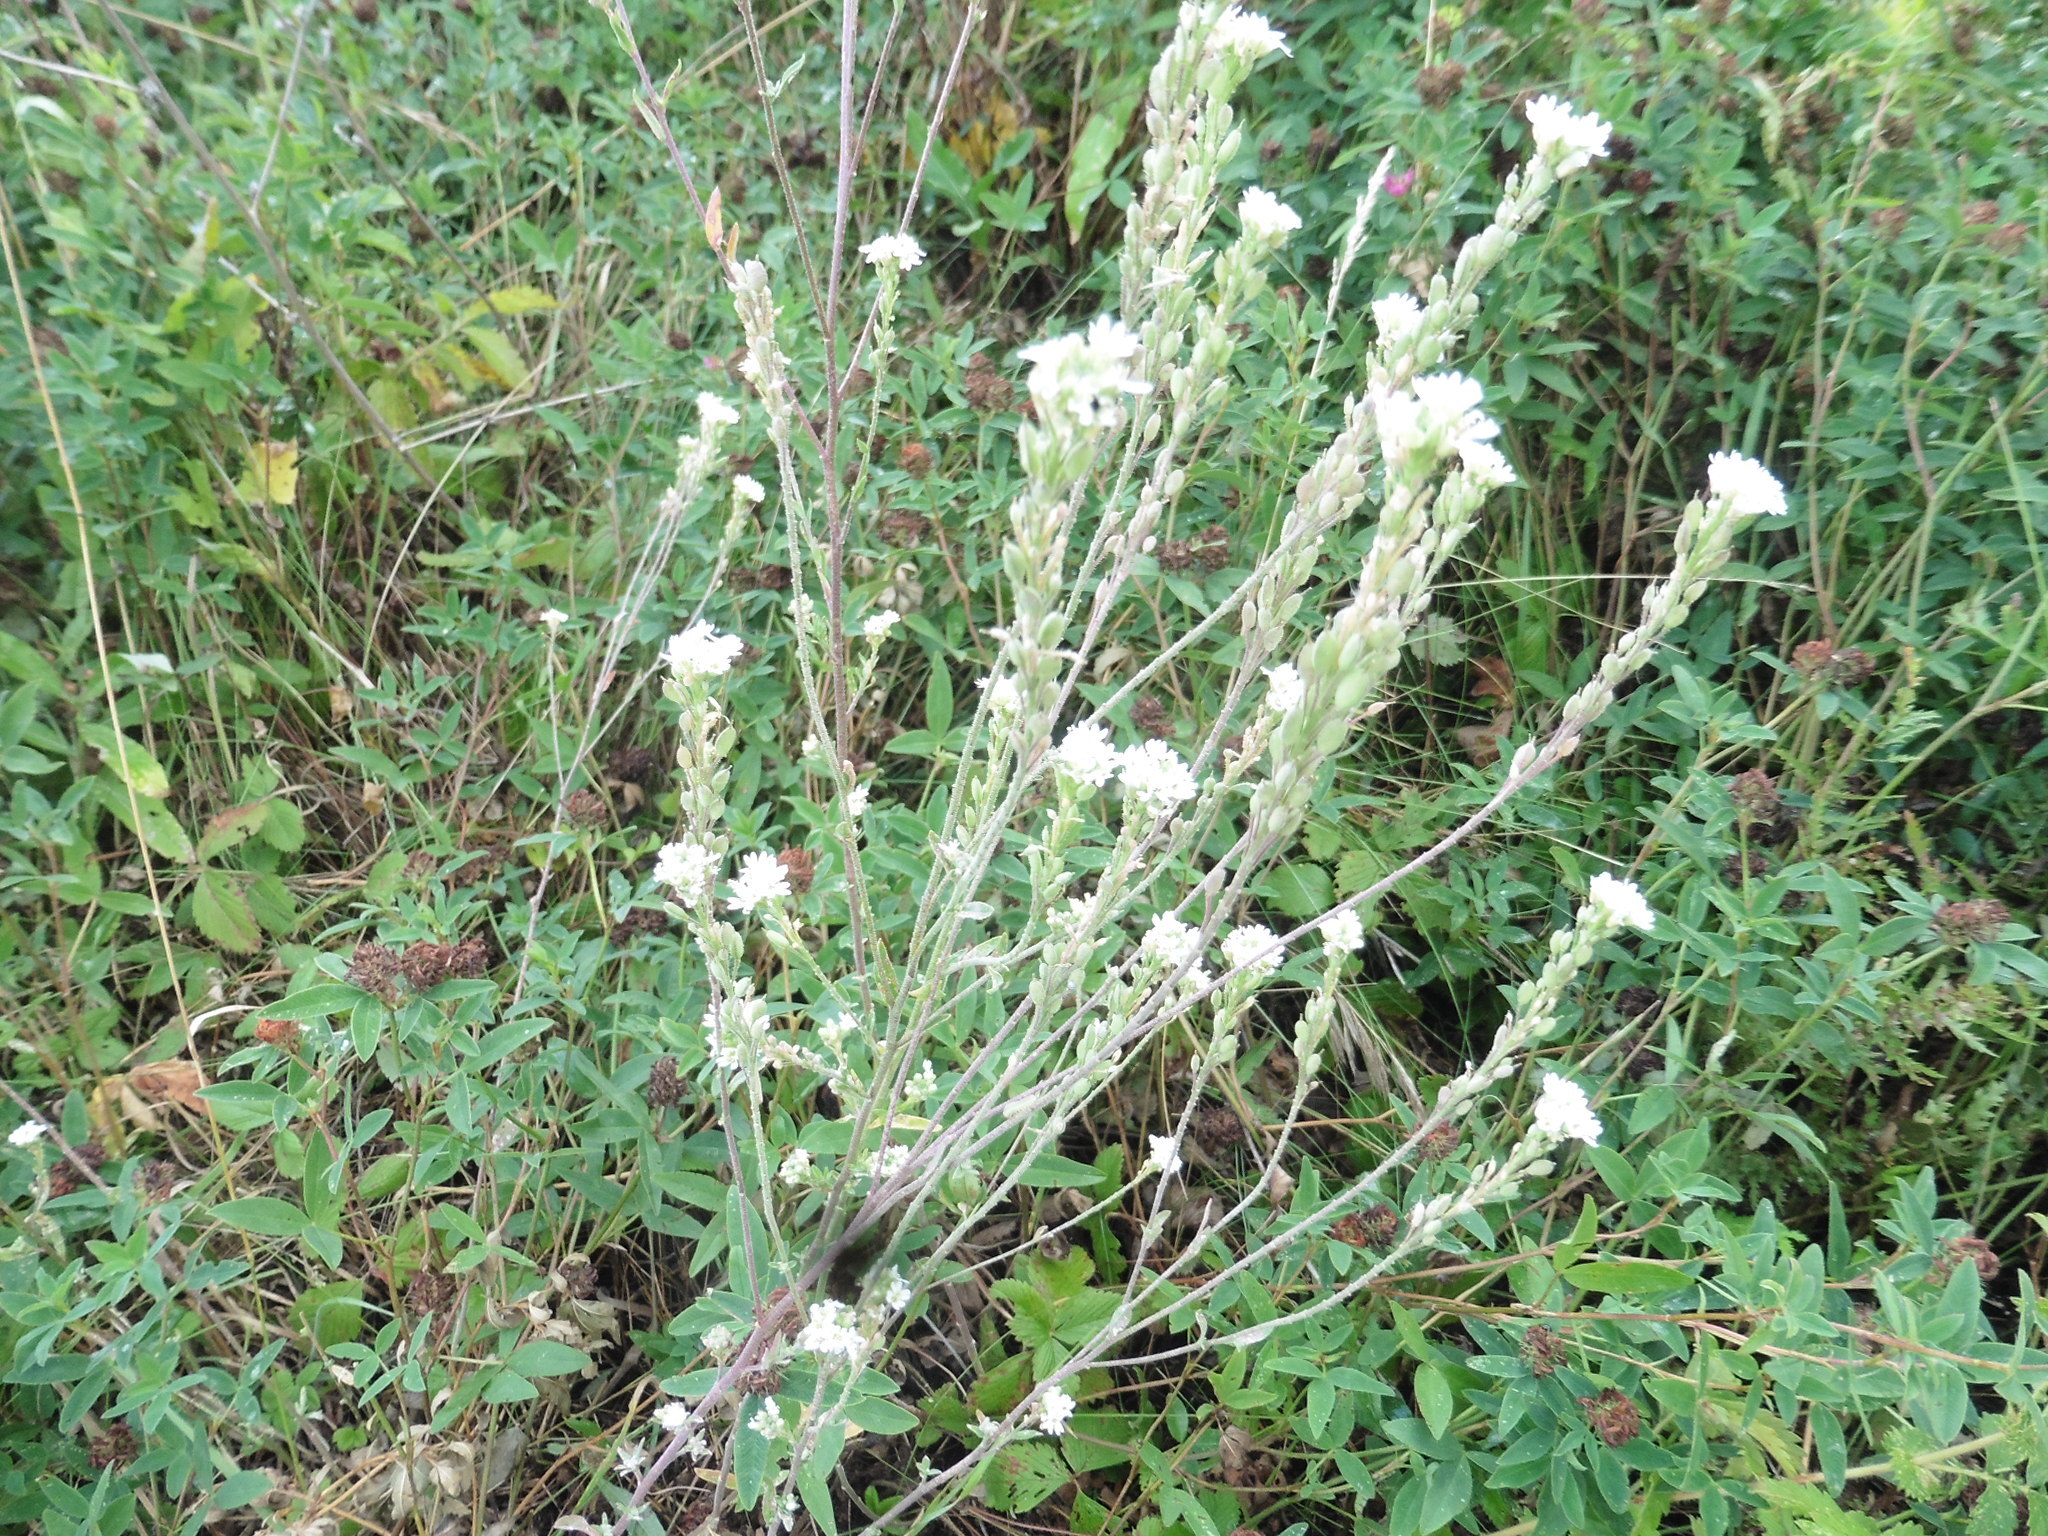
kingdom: Plantae
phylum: Tracheophyta
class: Magnoliopsida
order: Brassicales
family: Brassicaceae
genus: Berteroa
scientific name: Berteroa incana
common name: Hoary alison
